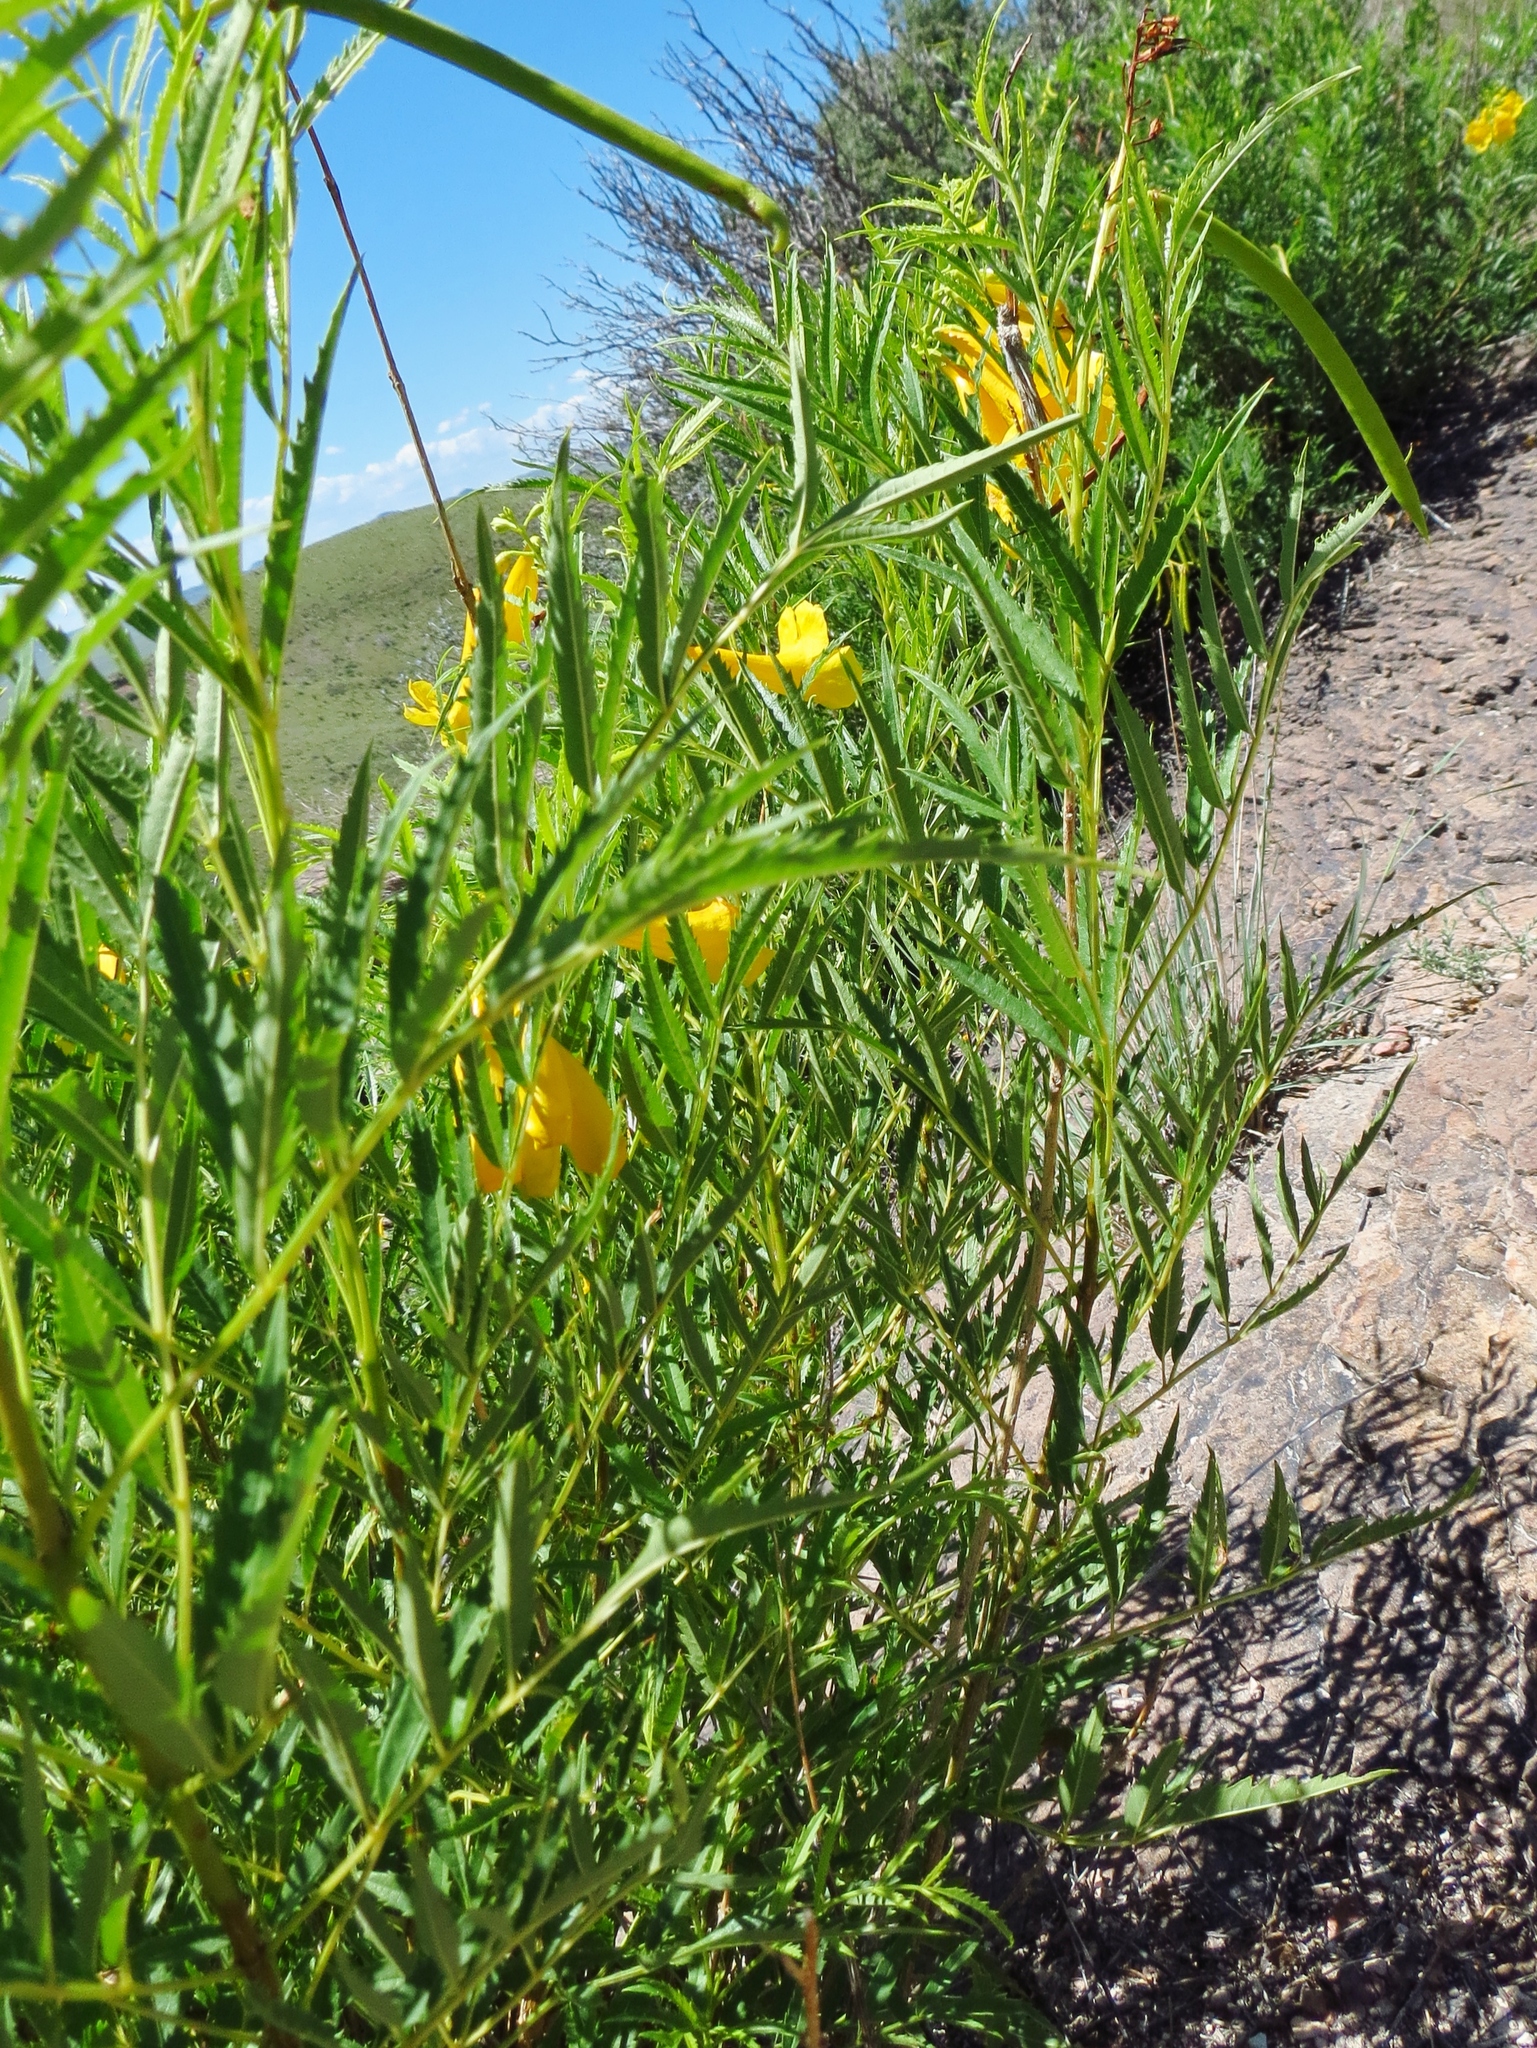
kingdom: Plantae
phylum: Tracheophyta
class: Magnoliopsida
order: Lamiales
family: Bignoniaceae
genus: Tecoma
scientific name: Tecoma stans
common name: Yellow trumpetbush
